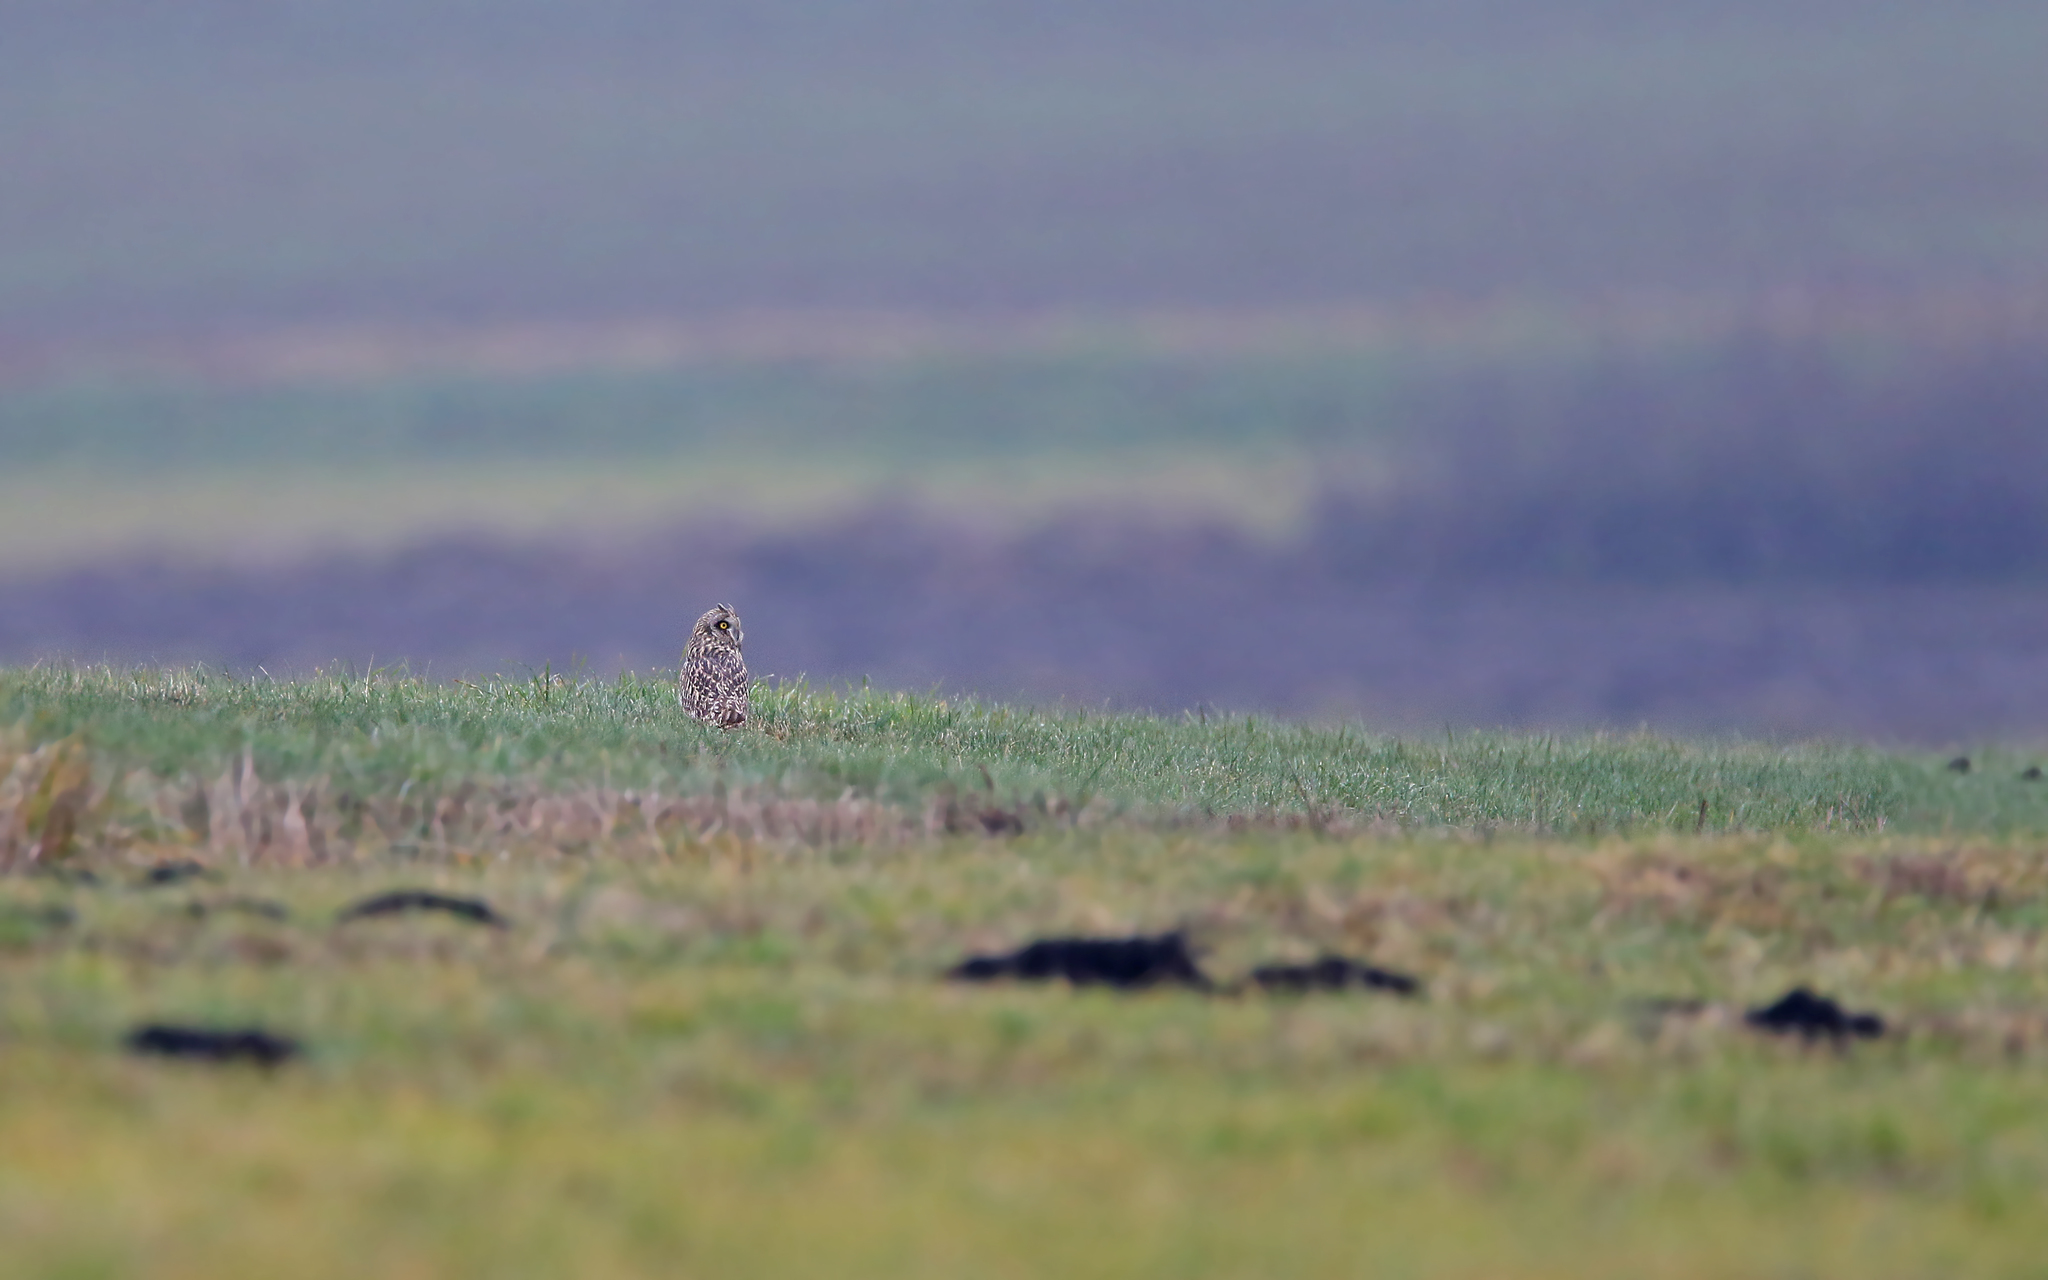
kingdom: Animalia
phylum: Chordata
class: Aves
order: Strigiformes
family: Strigidae
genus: Asio
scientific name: Asio flammeus
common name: Short-eared owl
